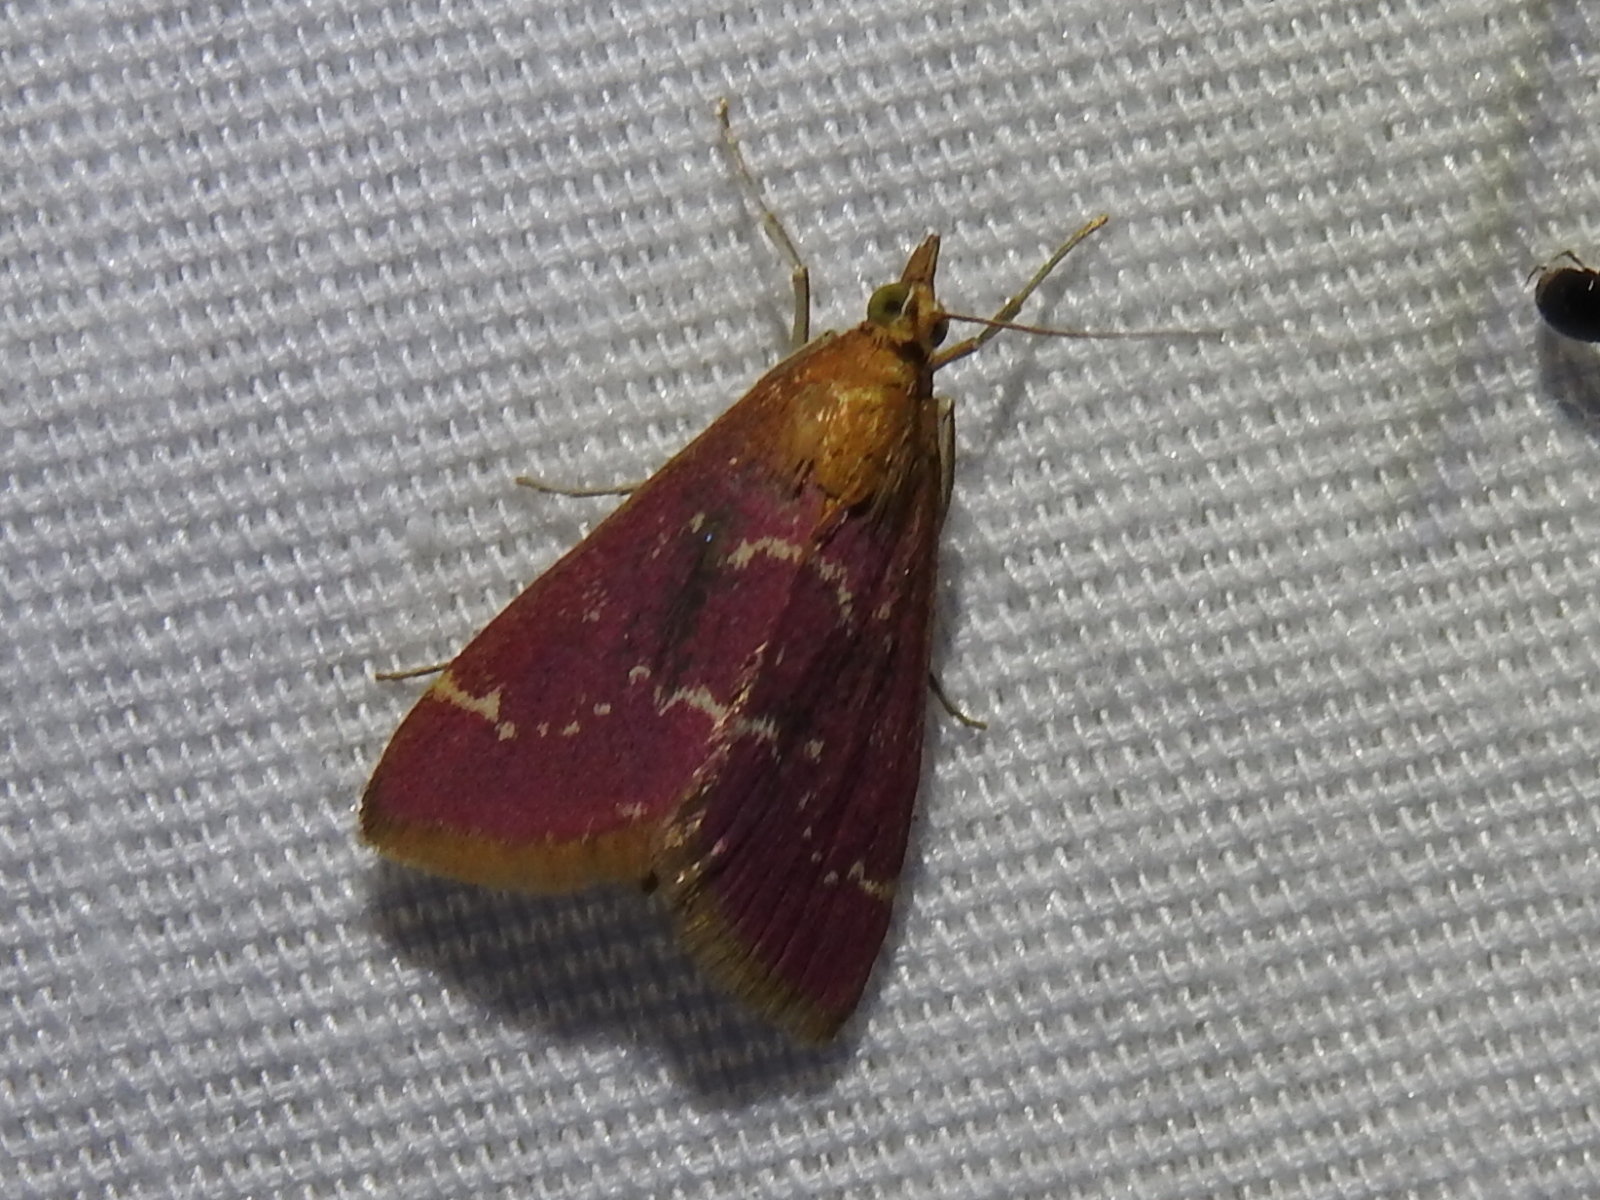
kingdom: Animalia
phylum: Arthropoda
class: Insecta
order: Lepidoptera
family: Crambidae
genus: Pyrausta
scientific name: Pyrausta signatalis
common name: Raspberry pyrausta moth
